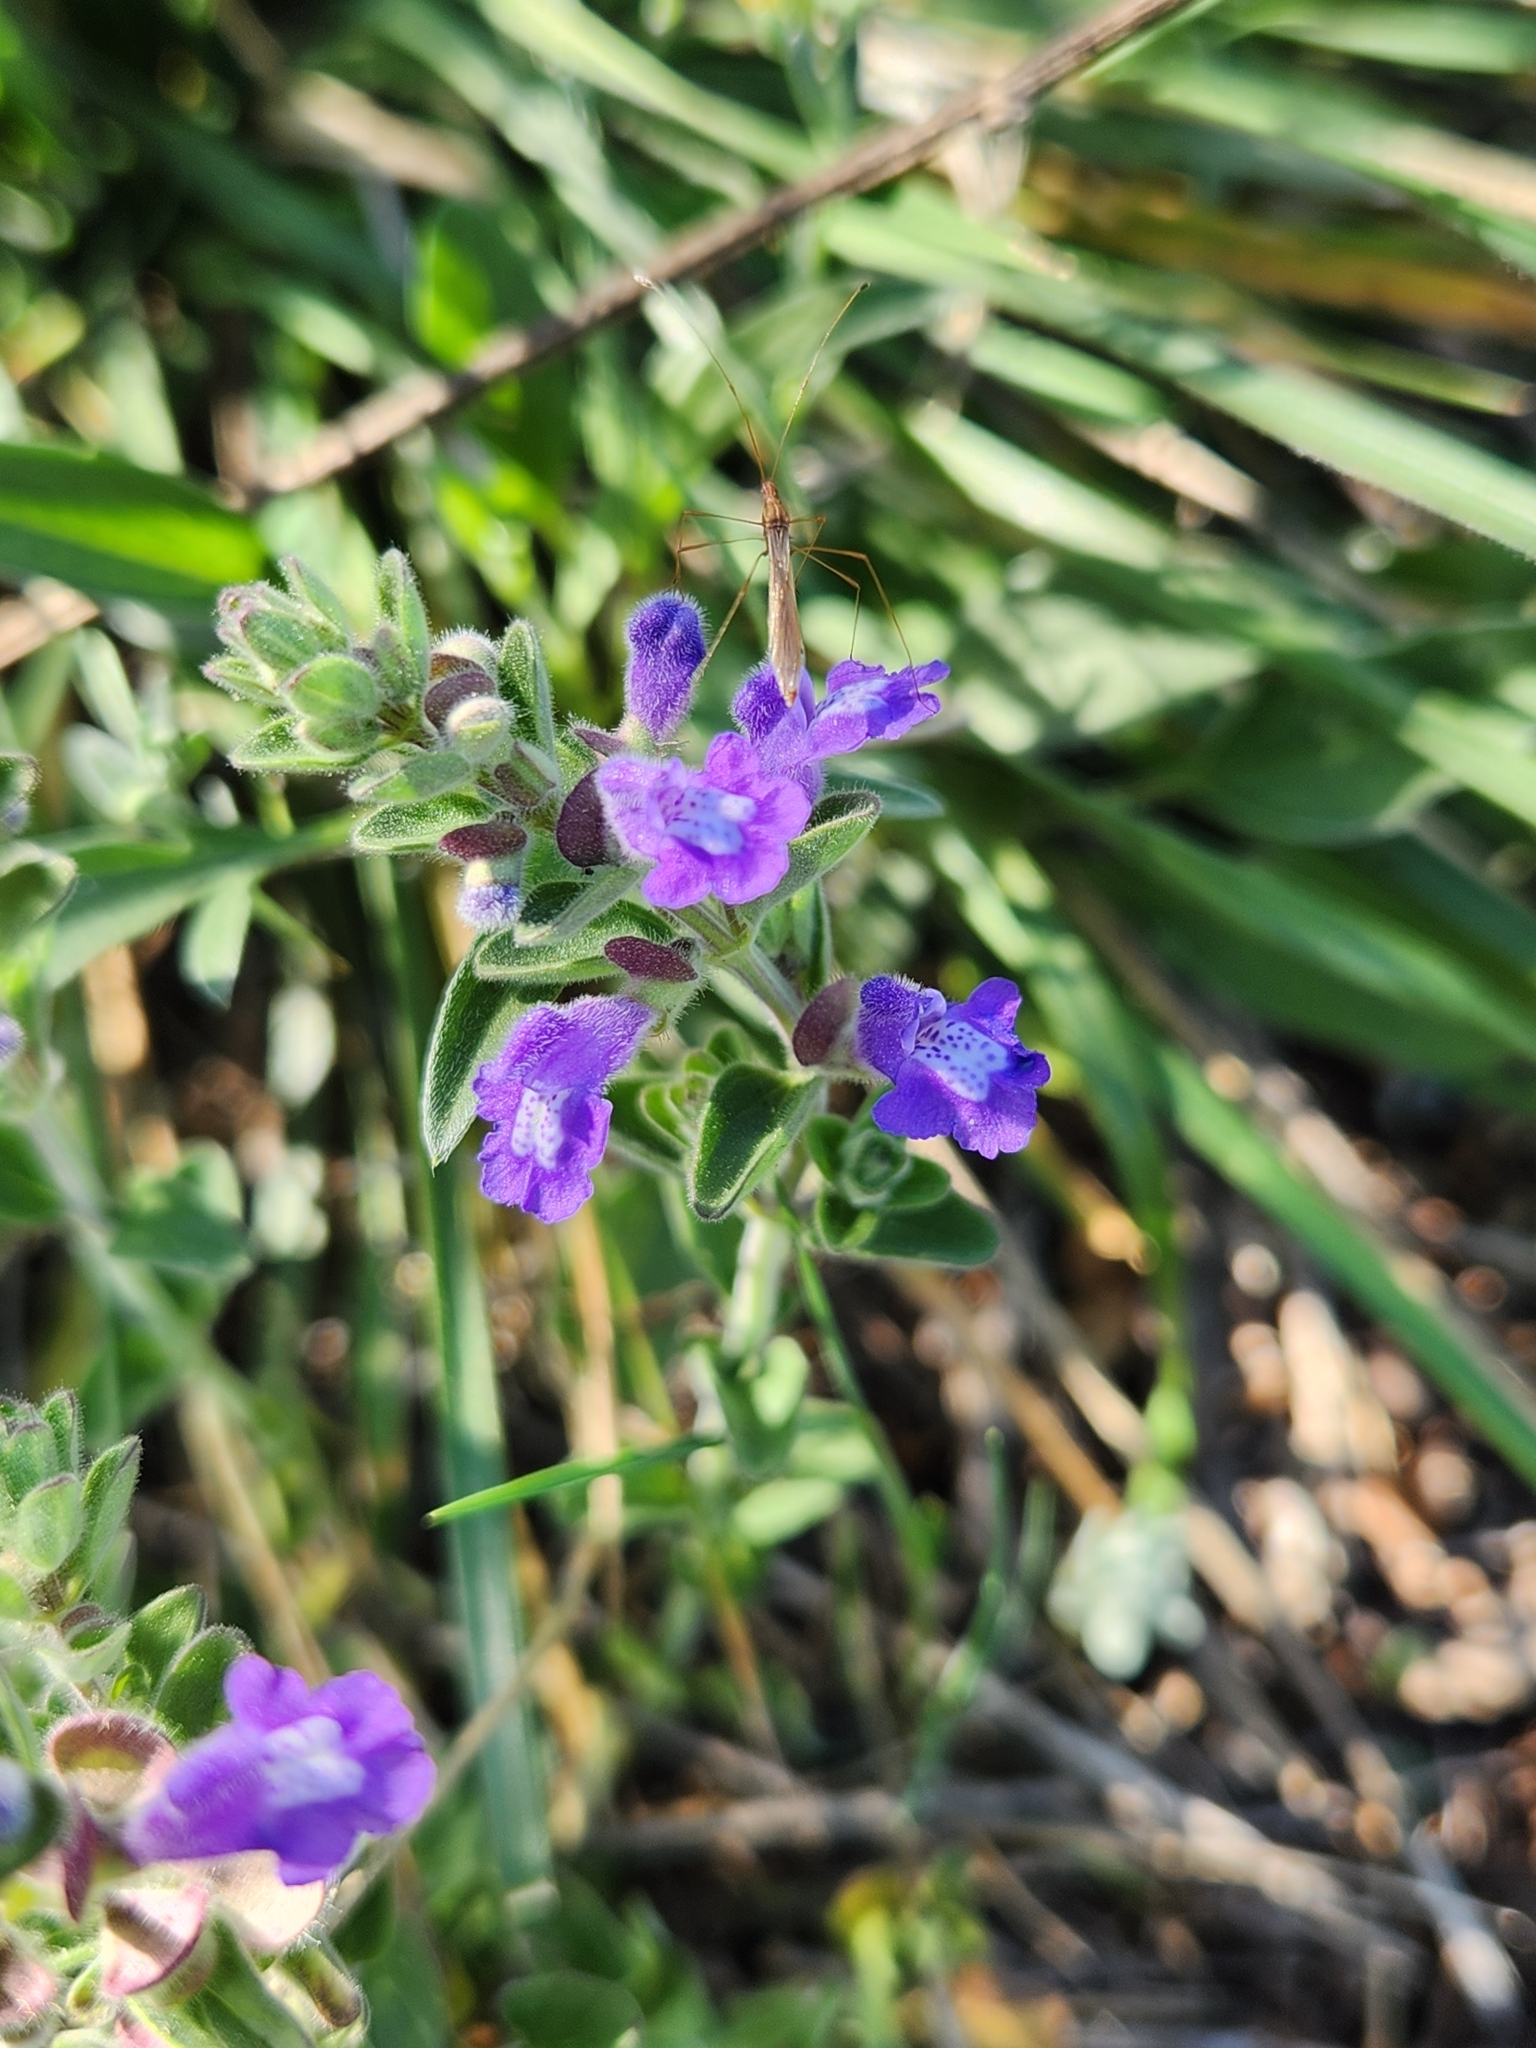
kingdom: Plantae
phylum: Tracheophyta
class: Magnoliopsida
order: Lamiales
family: Lamiaceae
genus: Scutellaria
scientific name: Scutellaria drummondii
